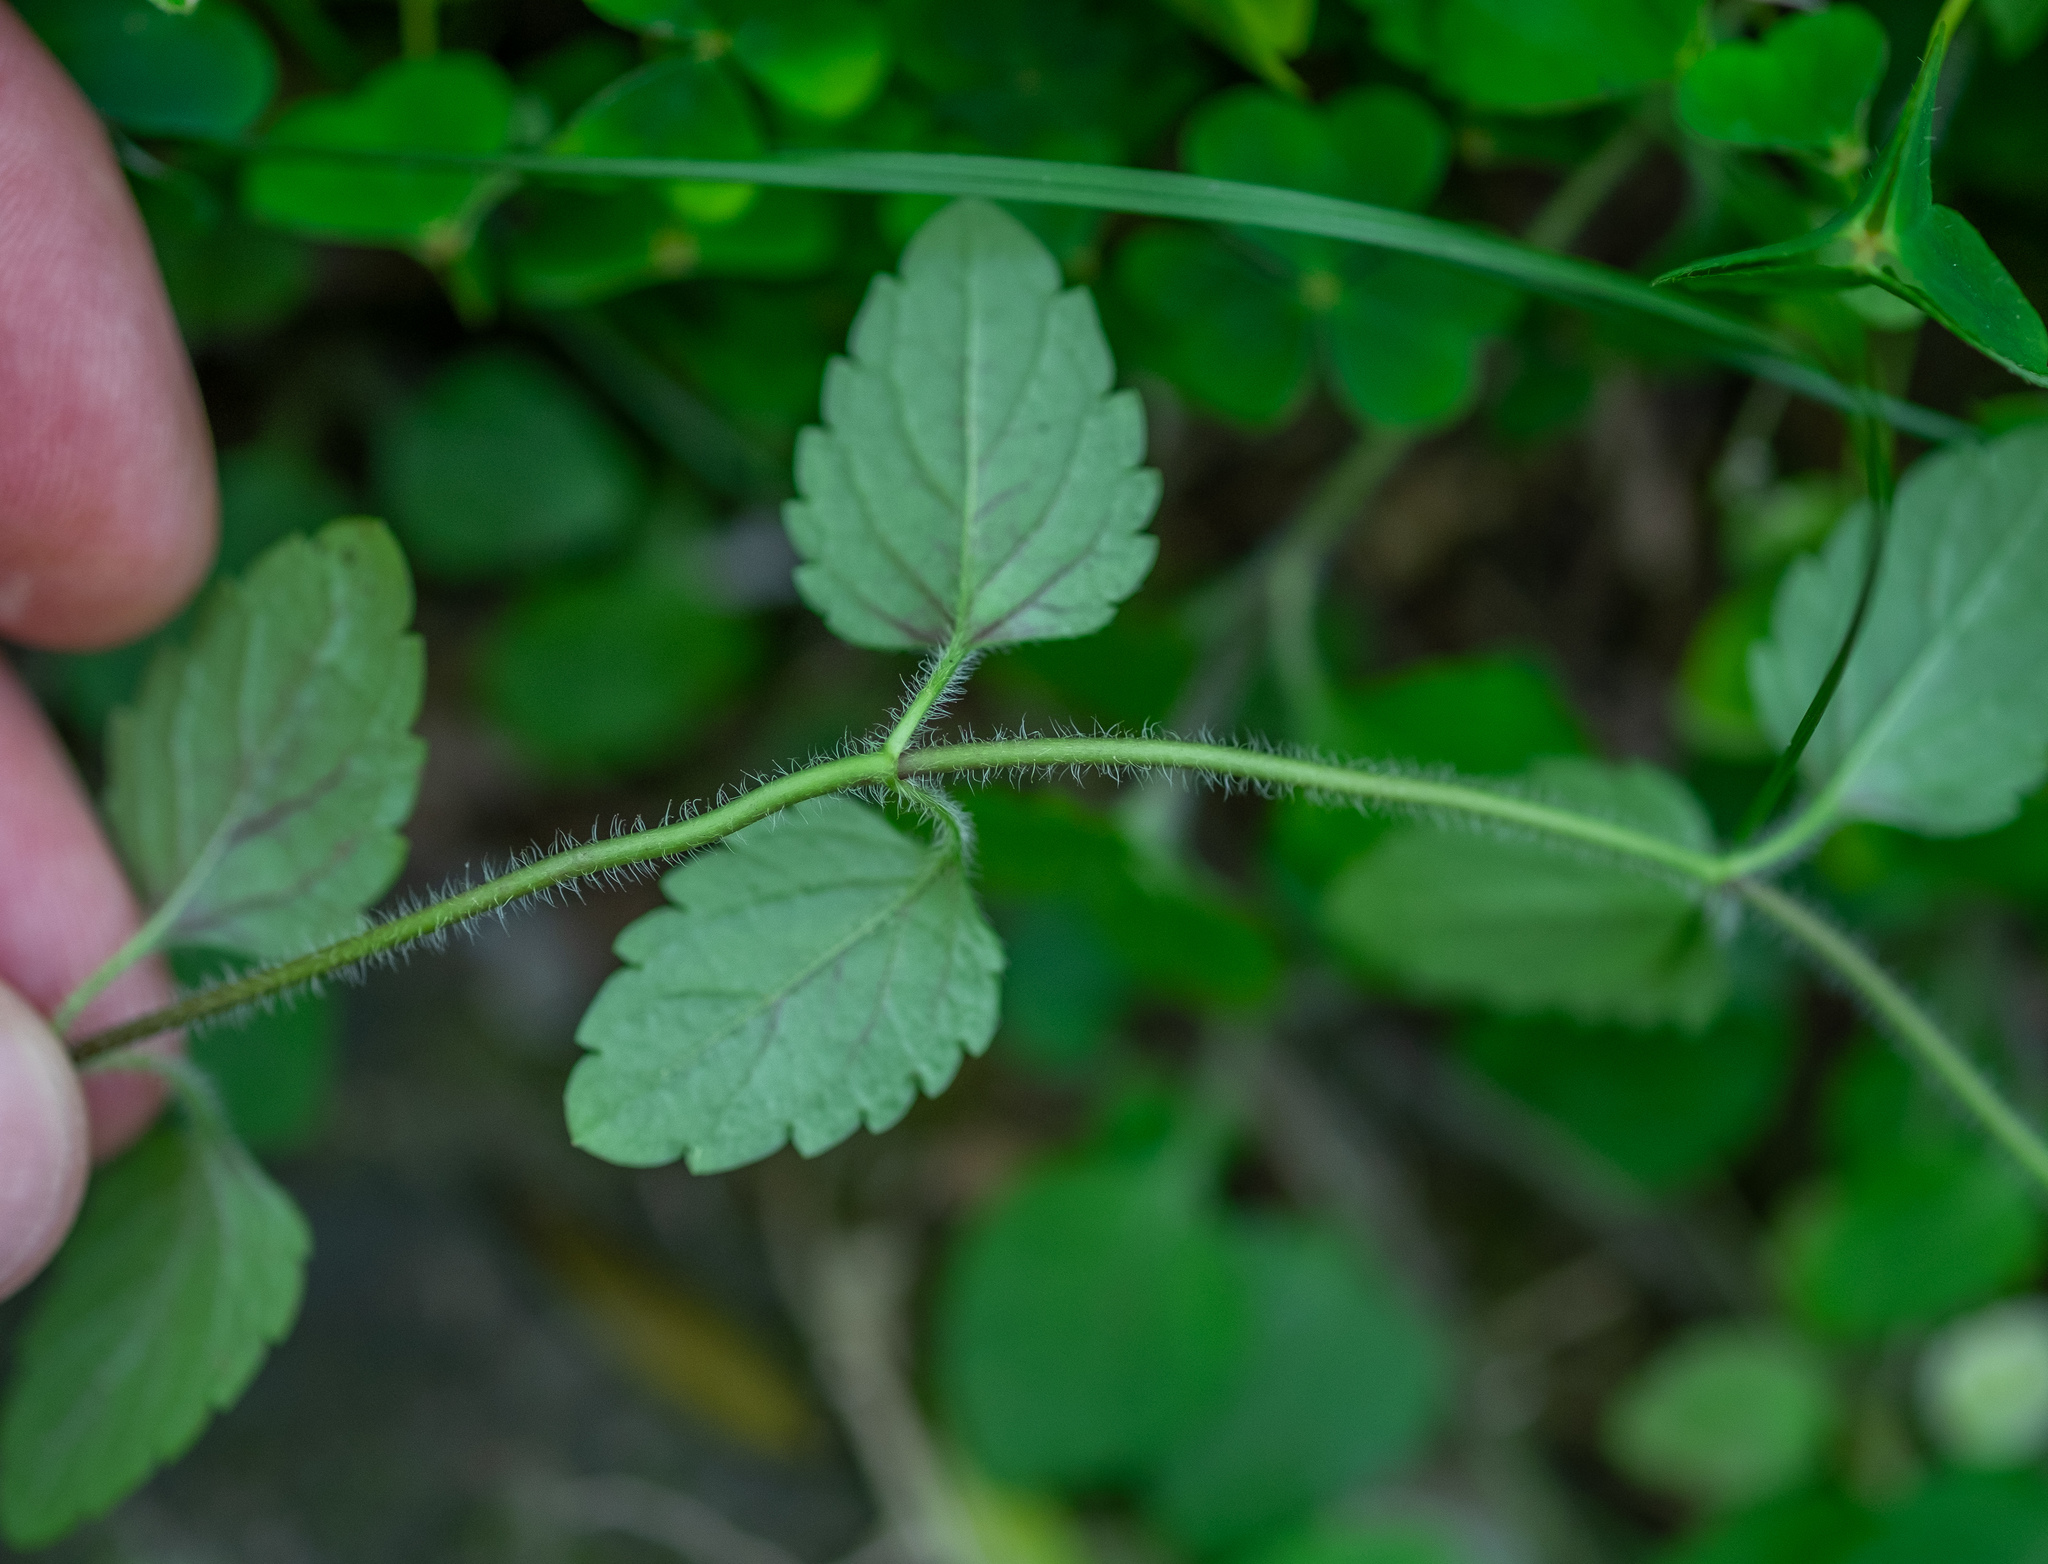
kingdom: Plantae
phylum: Tracheophyta
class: Magnoliopsida
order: Lamiales
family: Plantaginaceae
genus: Veronica
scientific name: Veronica montana
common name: Wood speedwell
